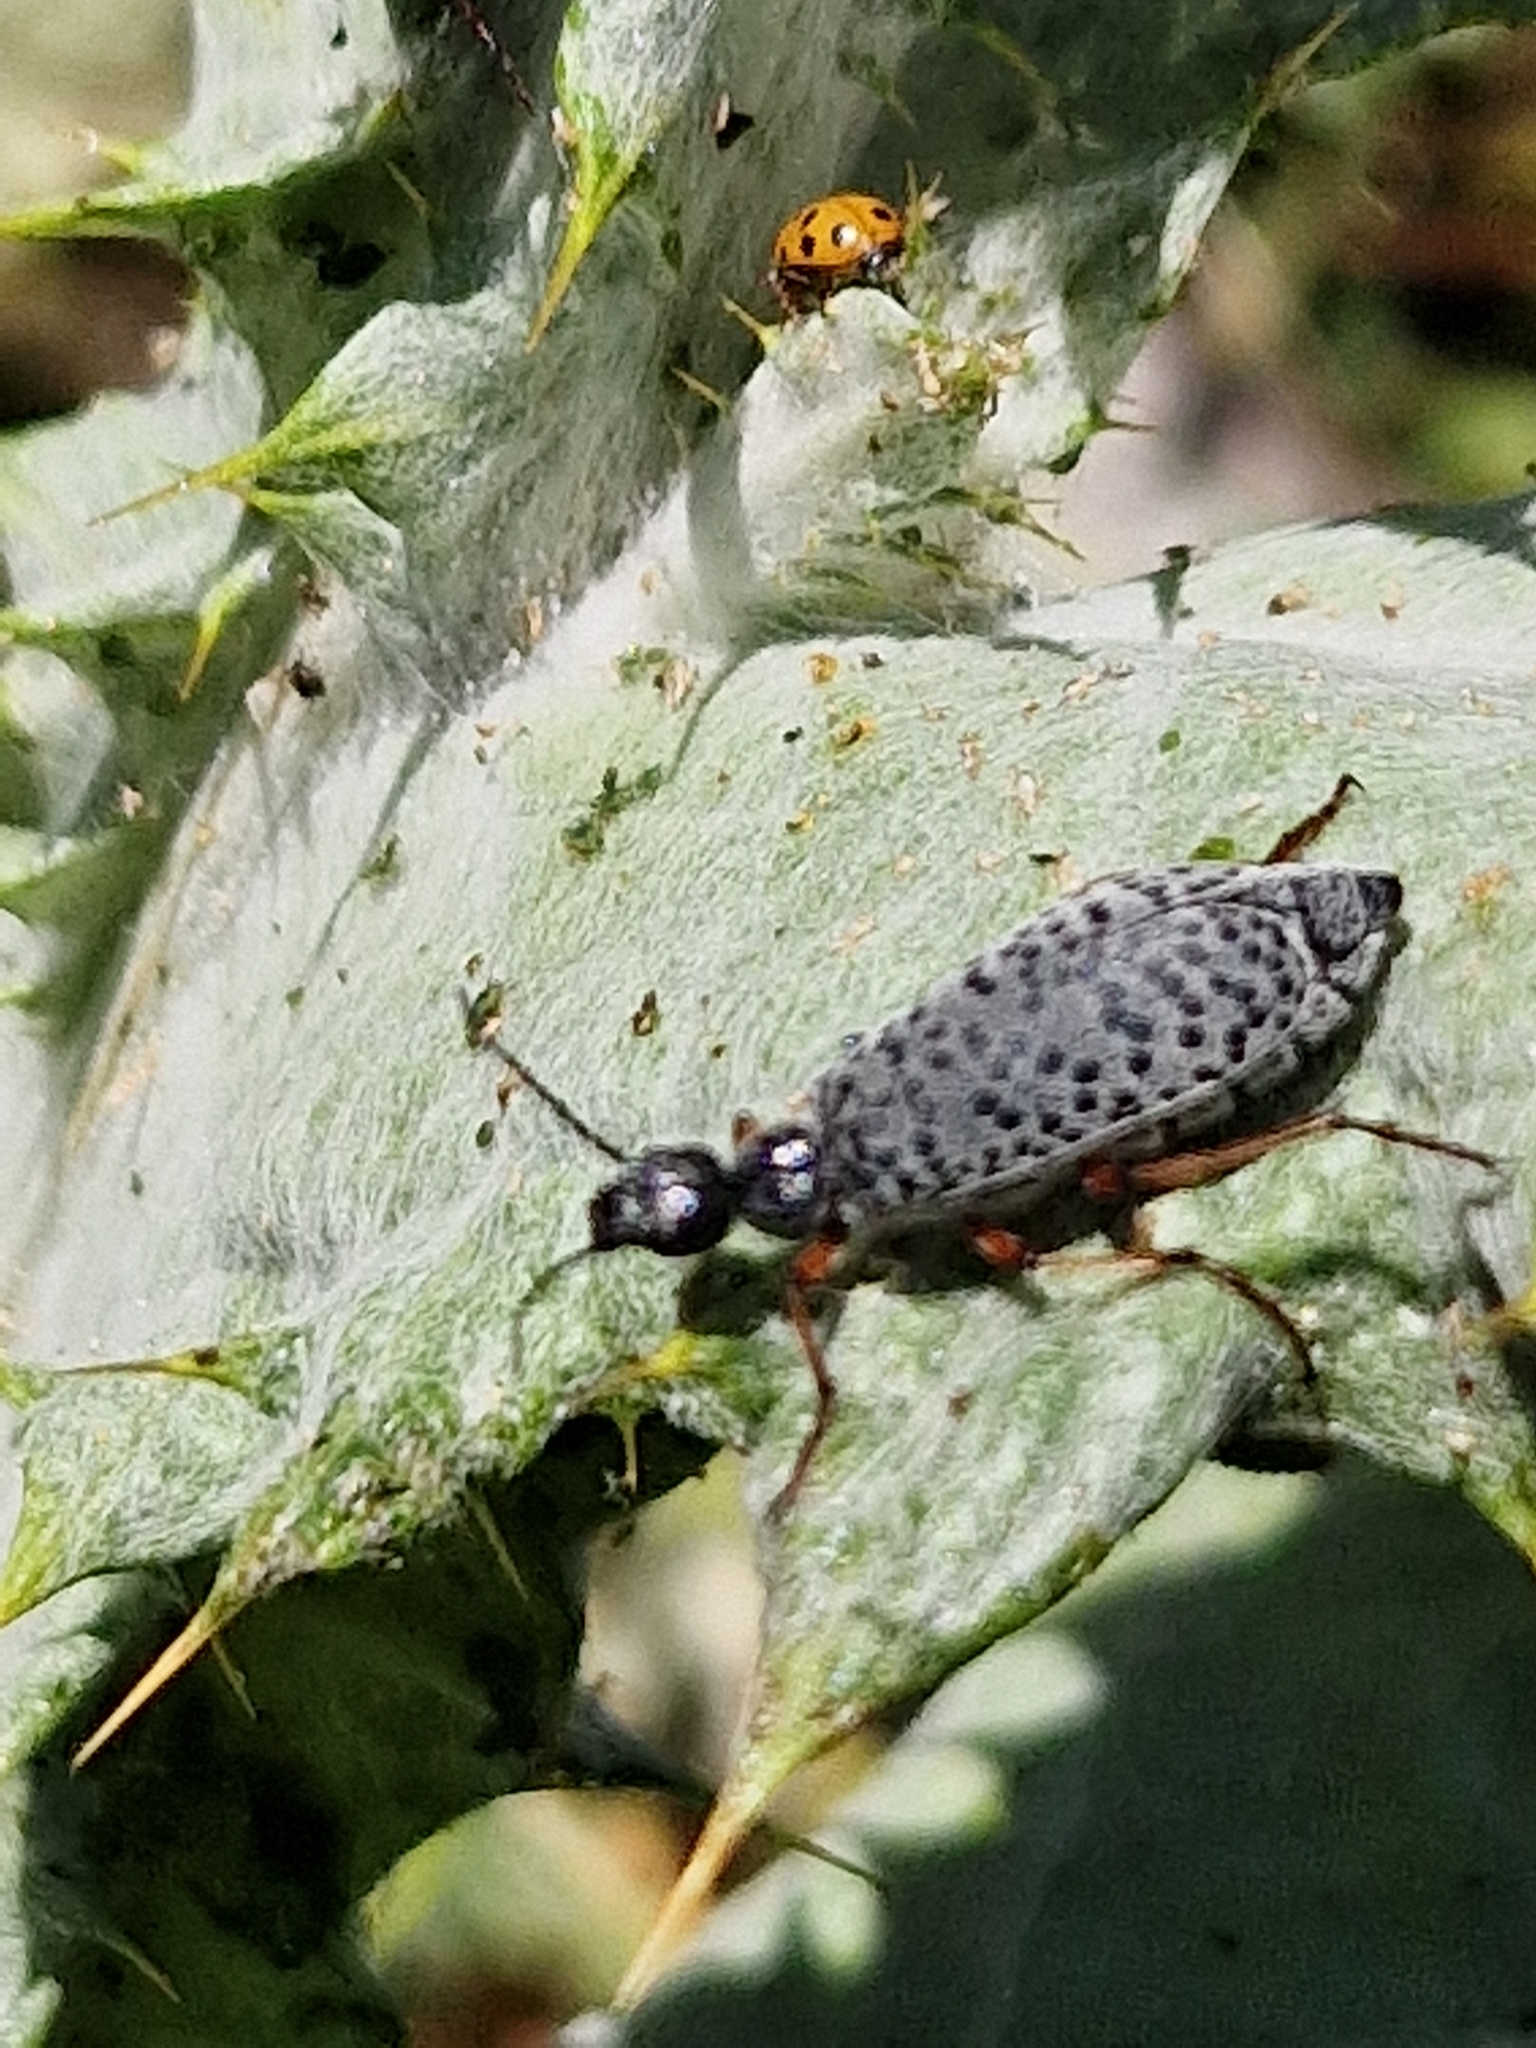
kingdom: Animalia
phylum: Arthropoda
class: Insecta
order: Coleoptera
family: Meloidae
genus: Epicauta
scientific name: Epicauta
